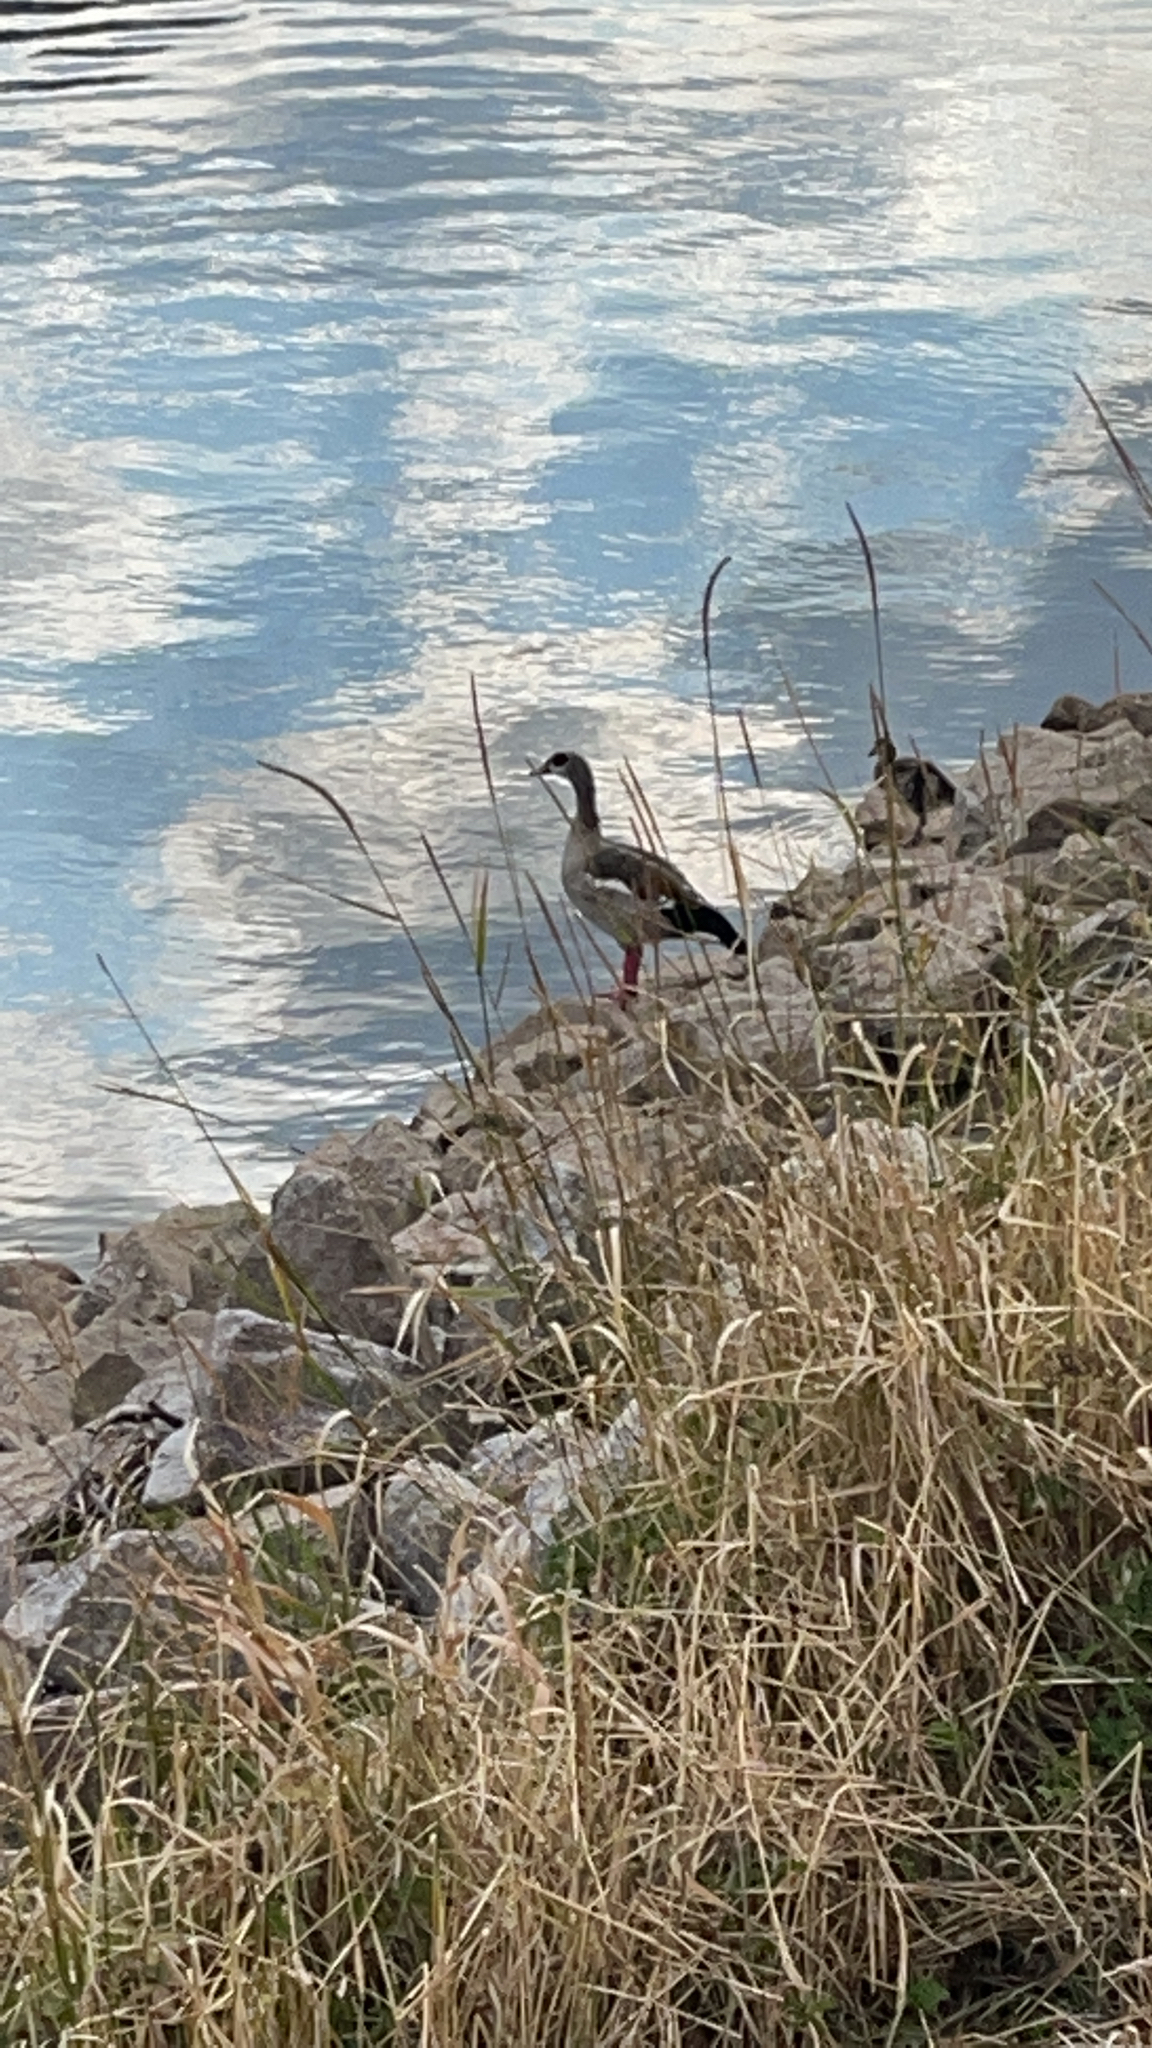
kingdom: Animalia
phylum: Chordata
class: Aves
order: Anseriformes
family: Anatidae
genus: Alopochen
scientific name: Alopochen aegyptiaca
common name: Egyptian goose
